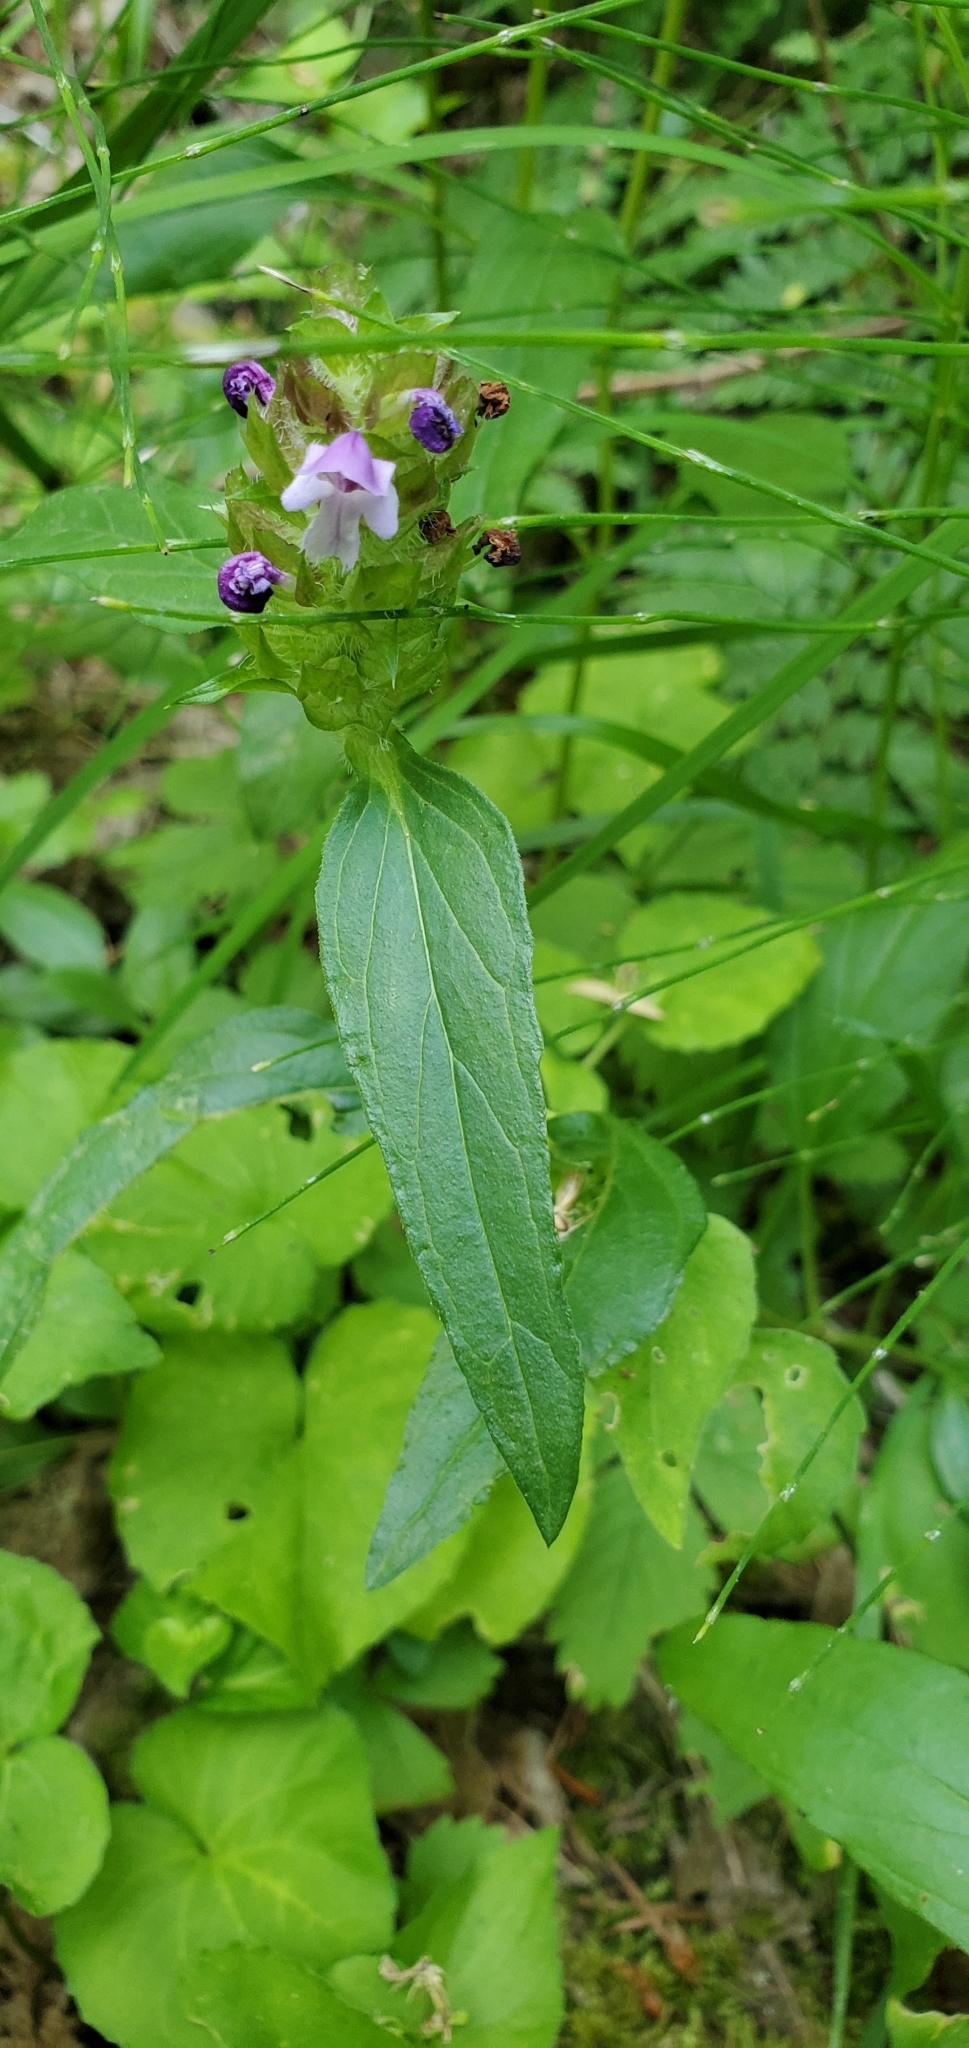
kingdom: Plantae
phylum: Tracheophyta
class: Magnoliopsida
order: Lamiales
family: Lamiaceae
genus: Prunella
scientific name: Prunella vulgaris
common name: Heal-all
